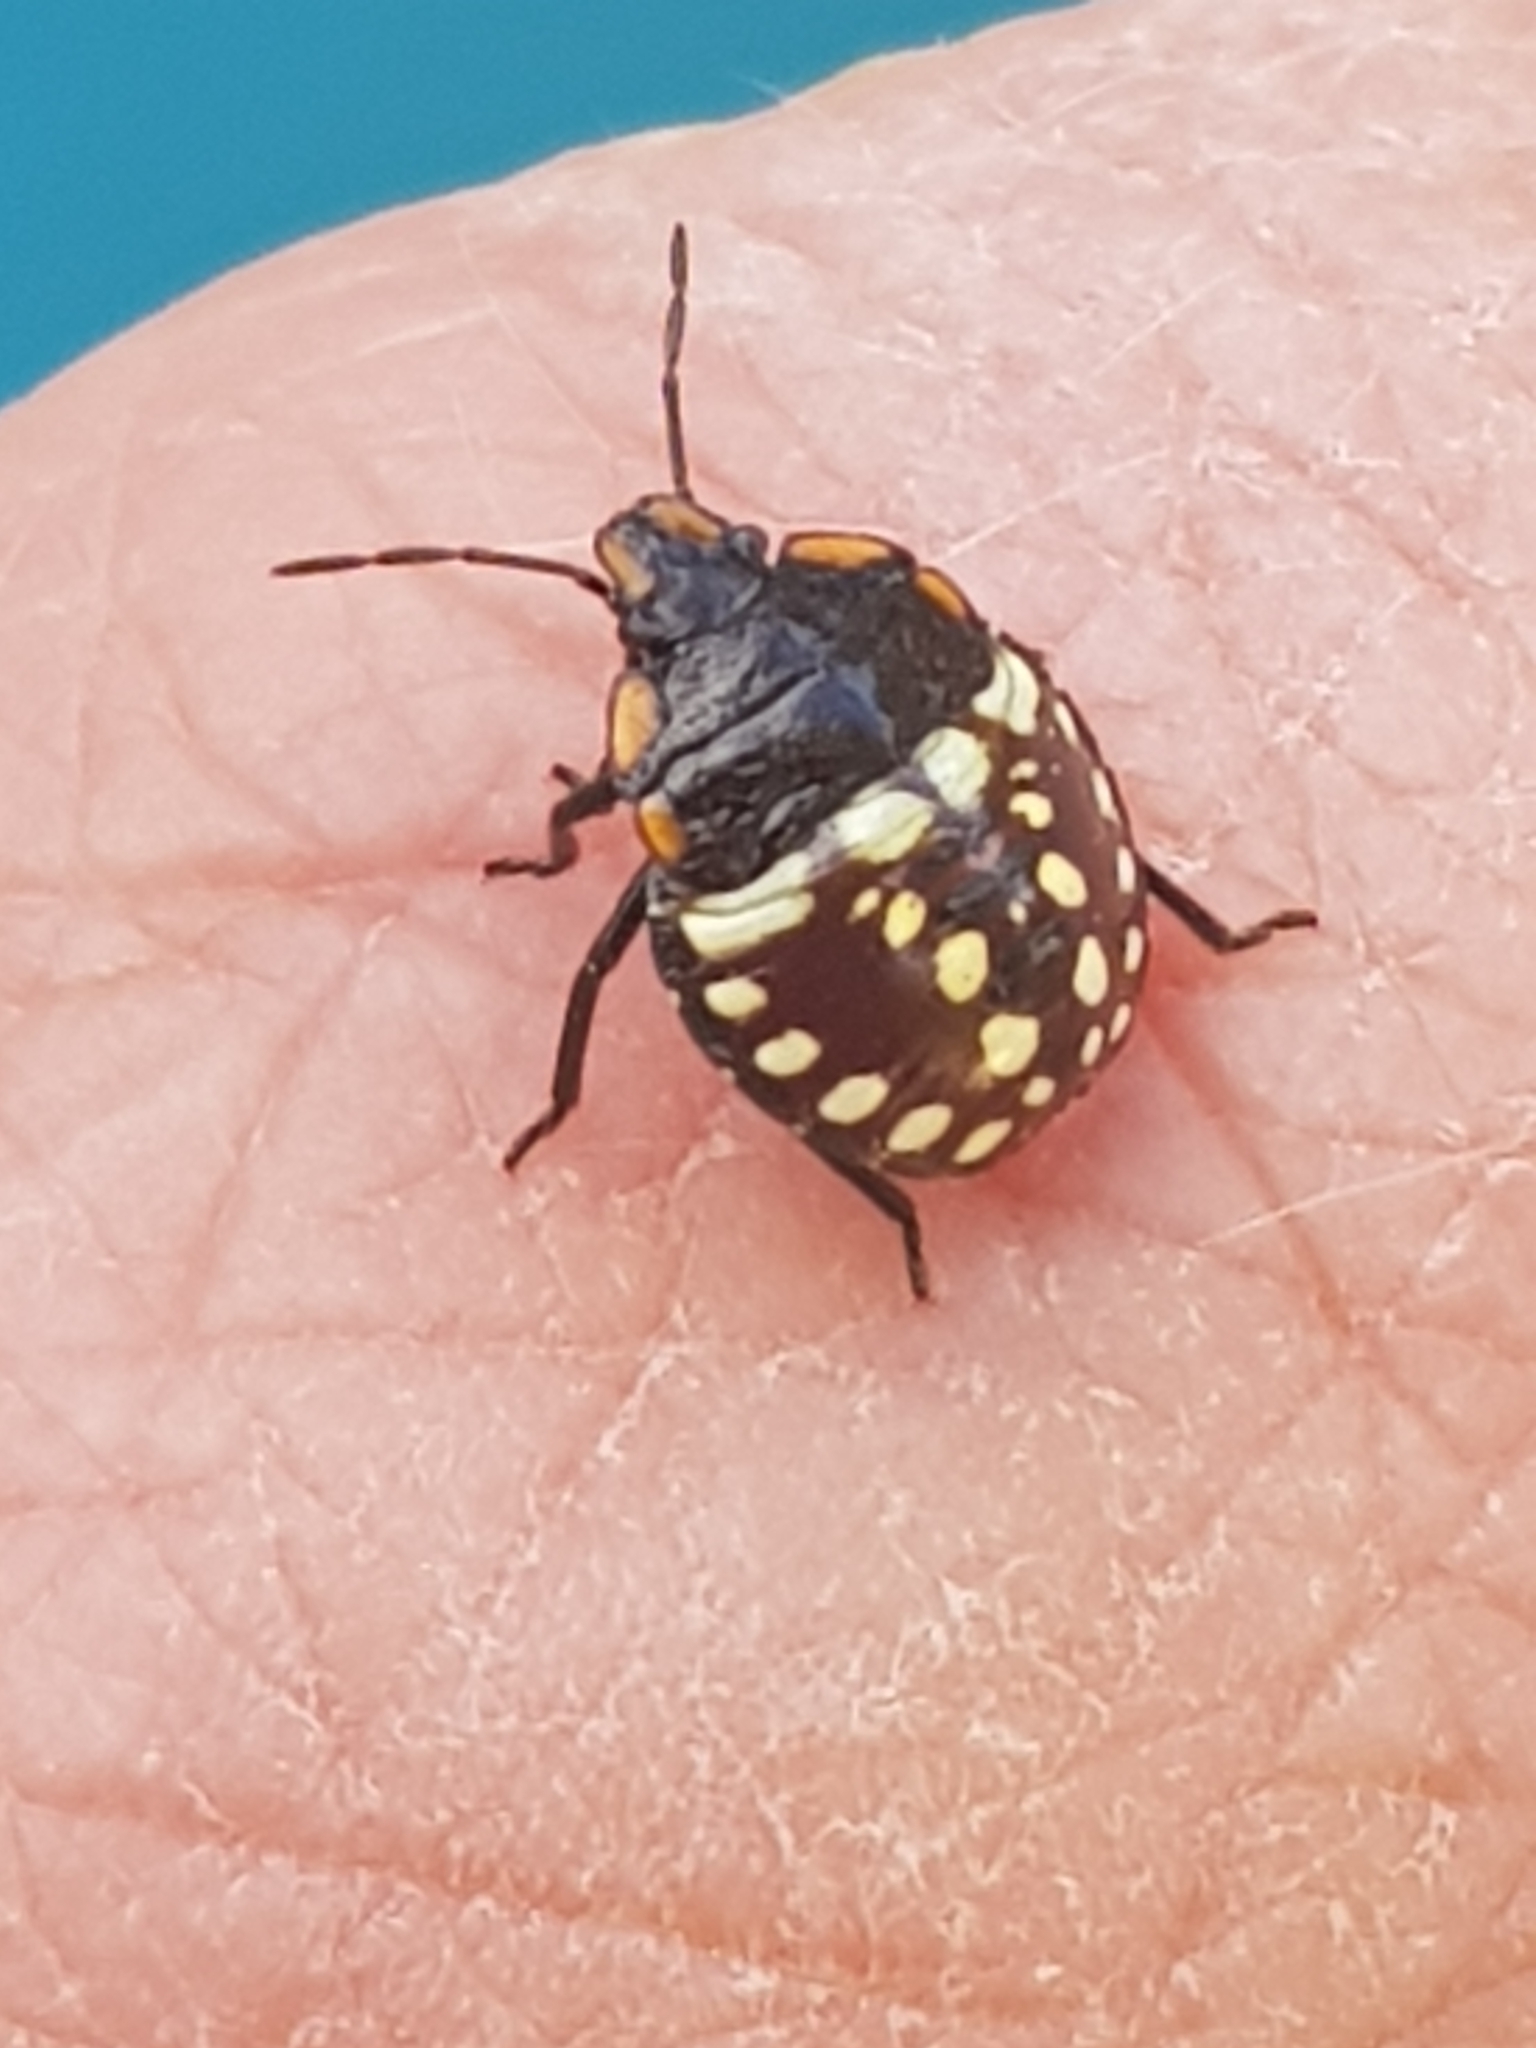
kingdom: Animalia
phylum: Arthropoda
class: Insecta
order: Hemiptera
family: Pentatomidae
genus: Nezara
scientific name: Nezara viridula
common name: Southern green stink bug
